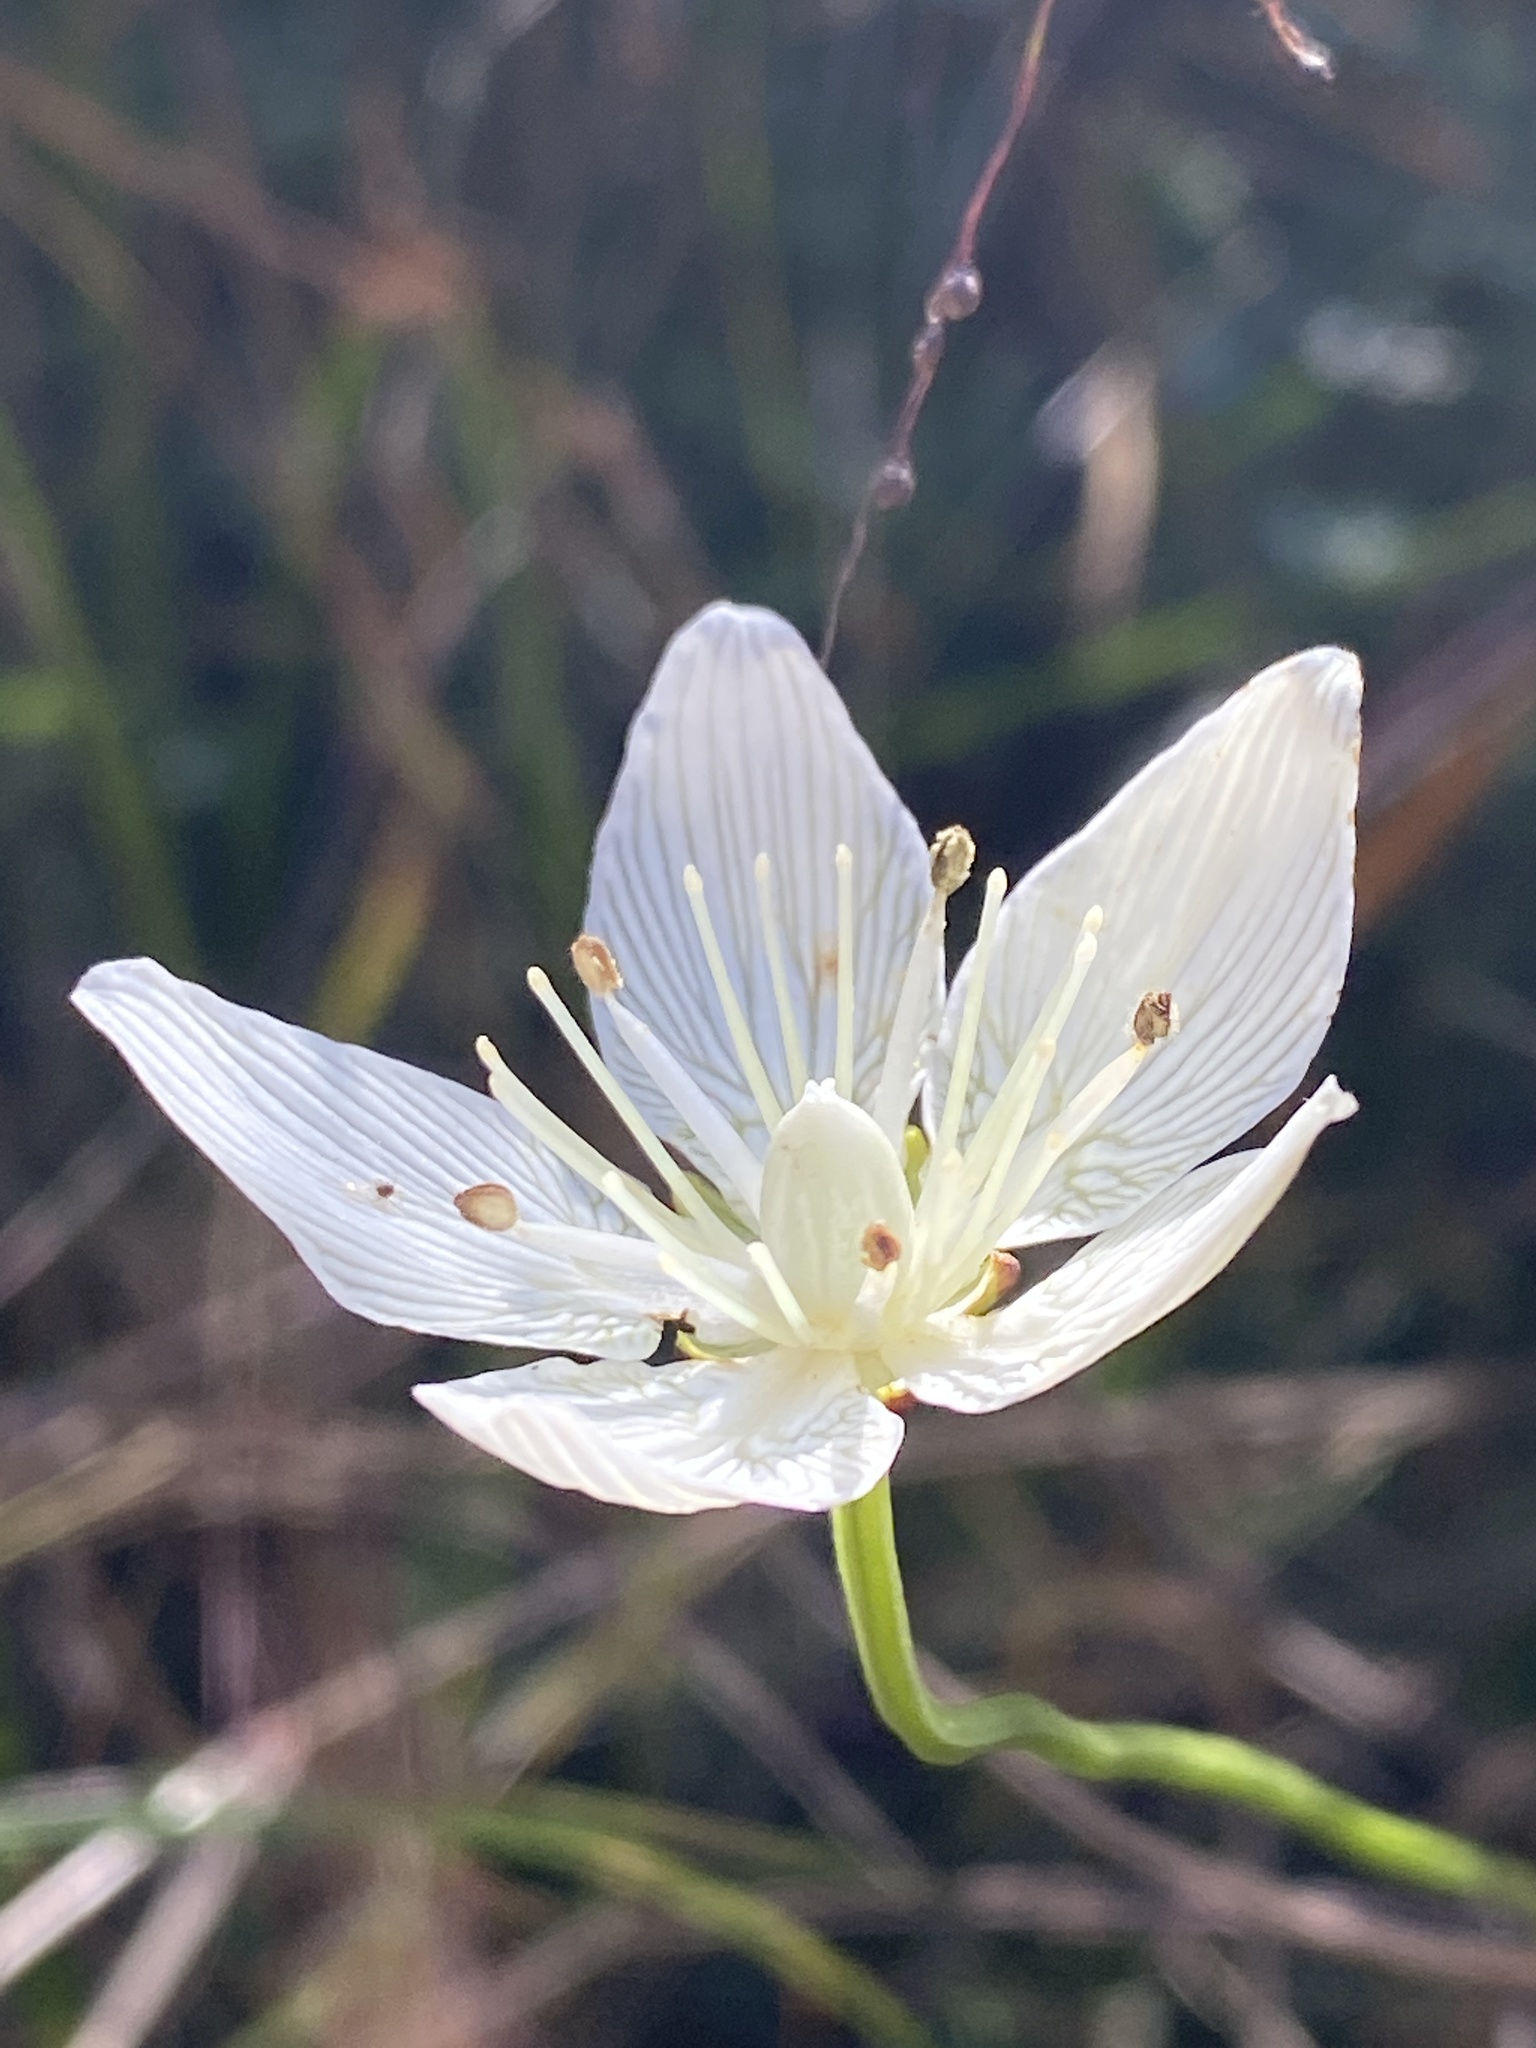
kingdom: Plantae
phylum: Tracheophyta
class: Magnoliopsida
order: Celastrales
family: Parnassiaceae
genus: Parnassia
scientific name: Parnassia caroliniana
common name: Carolina grass of parnassus
